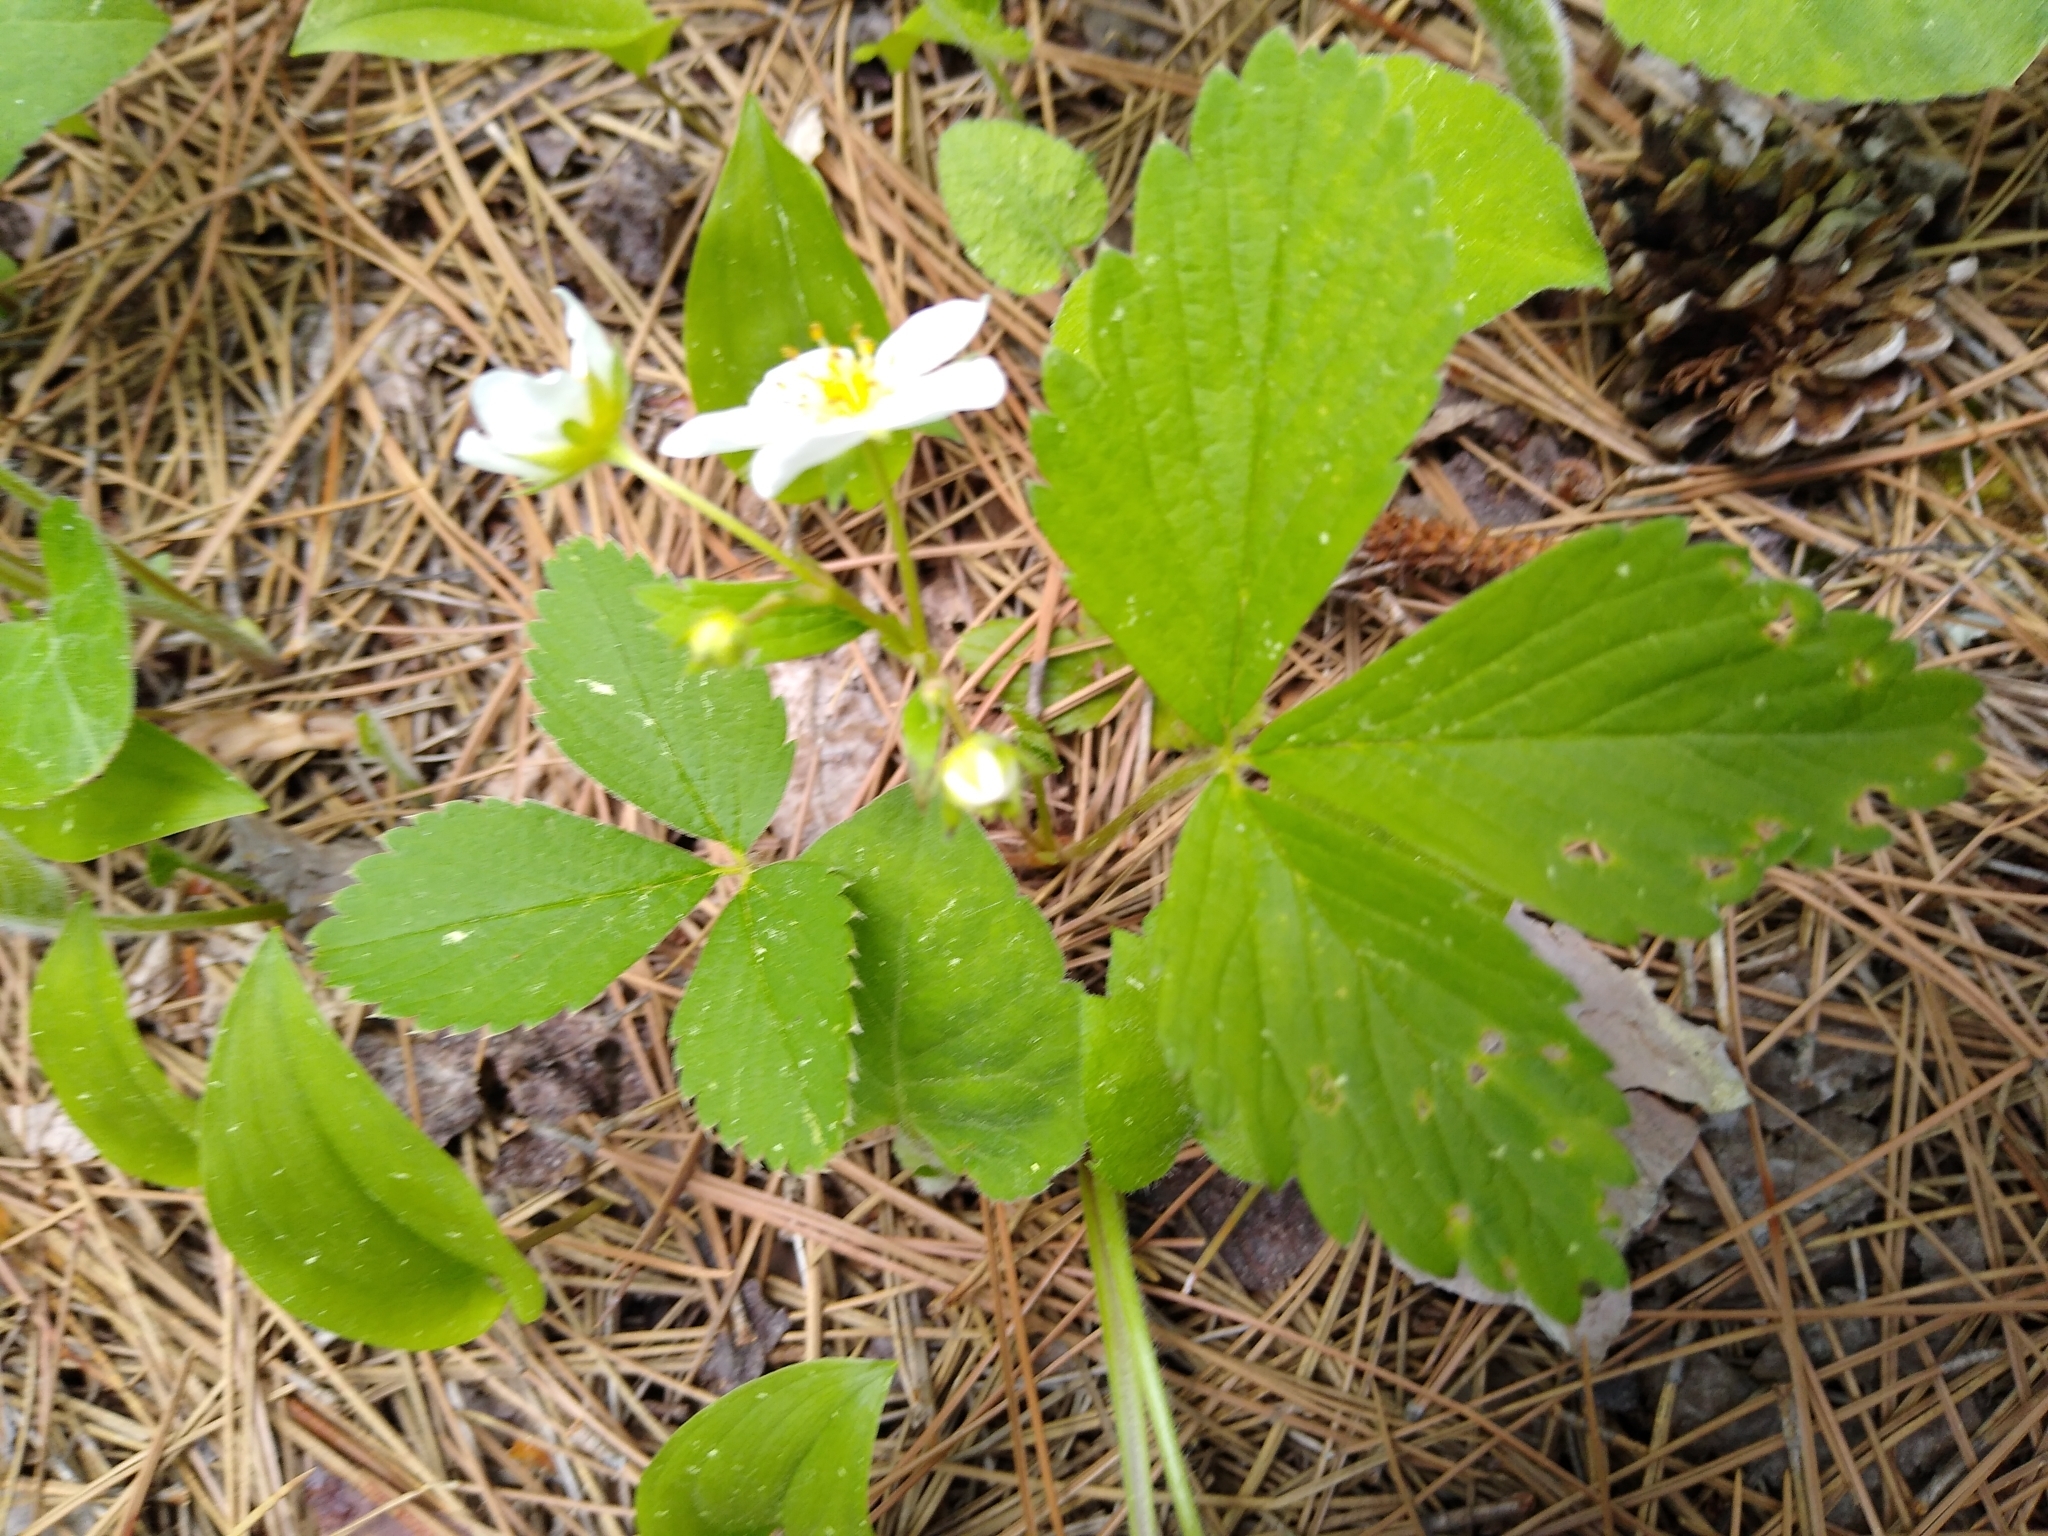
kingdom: Plantae
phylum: Tracheophyta
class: Magnoliopsida
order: Rosales
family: Rosaceae
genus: Fragaria
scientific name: Fragaria virginiana
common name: Thickleaved wild strawberry
